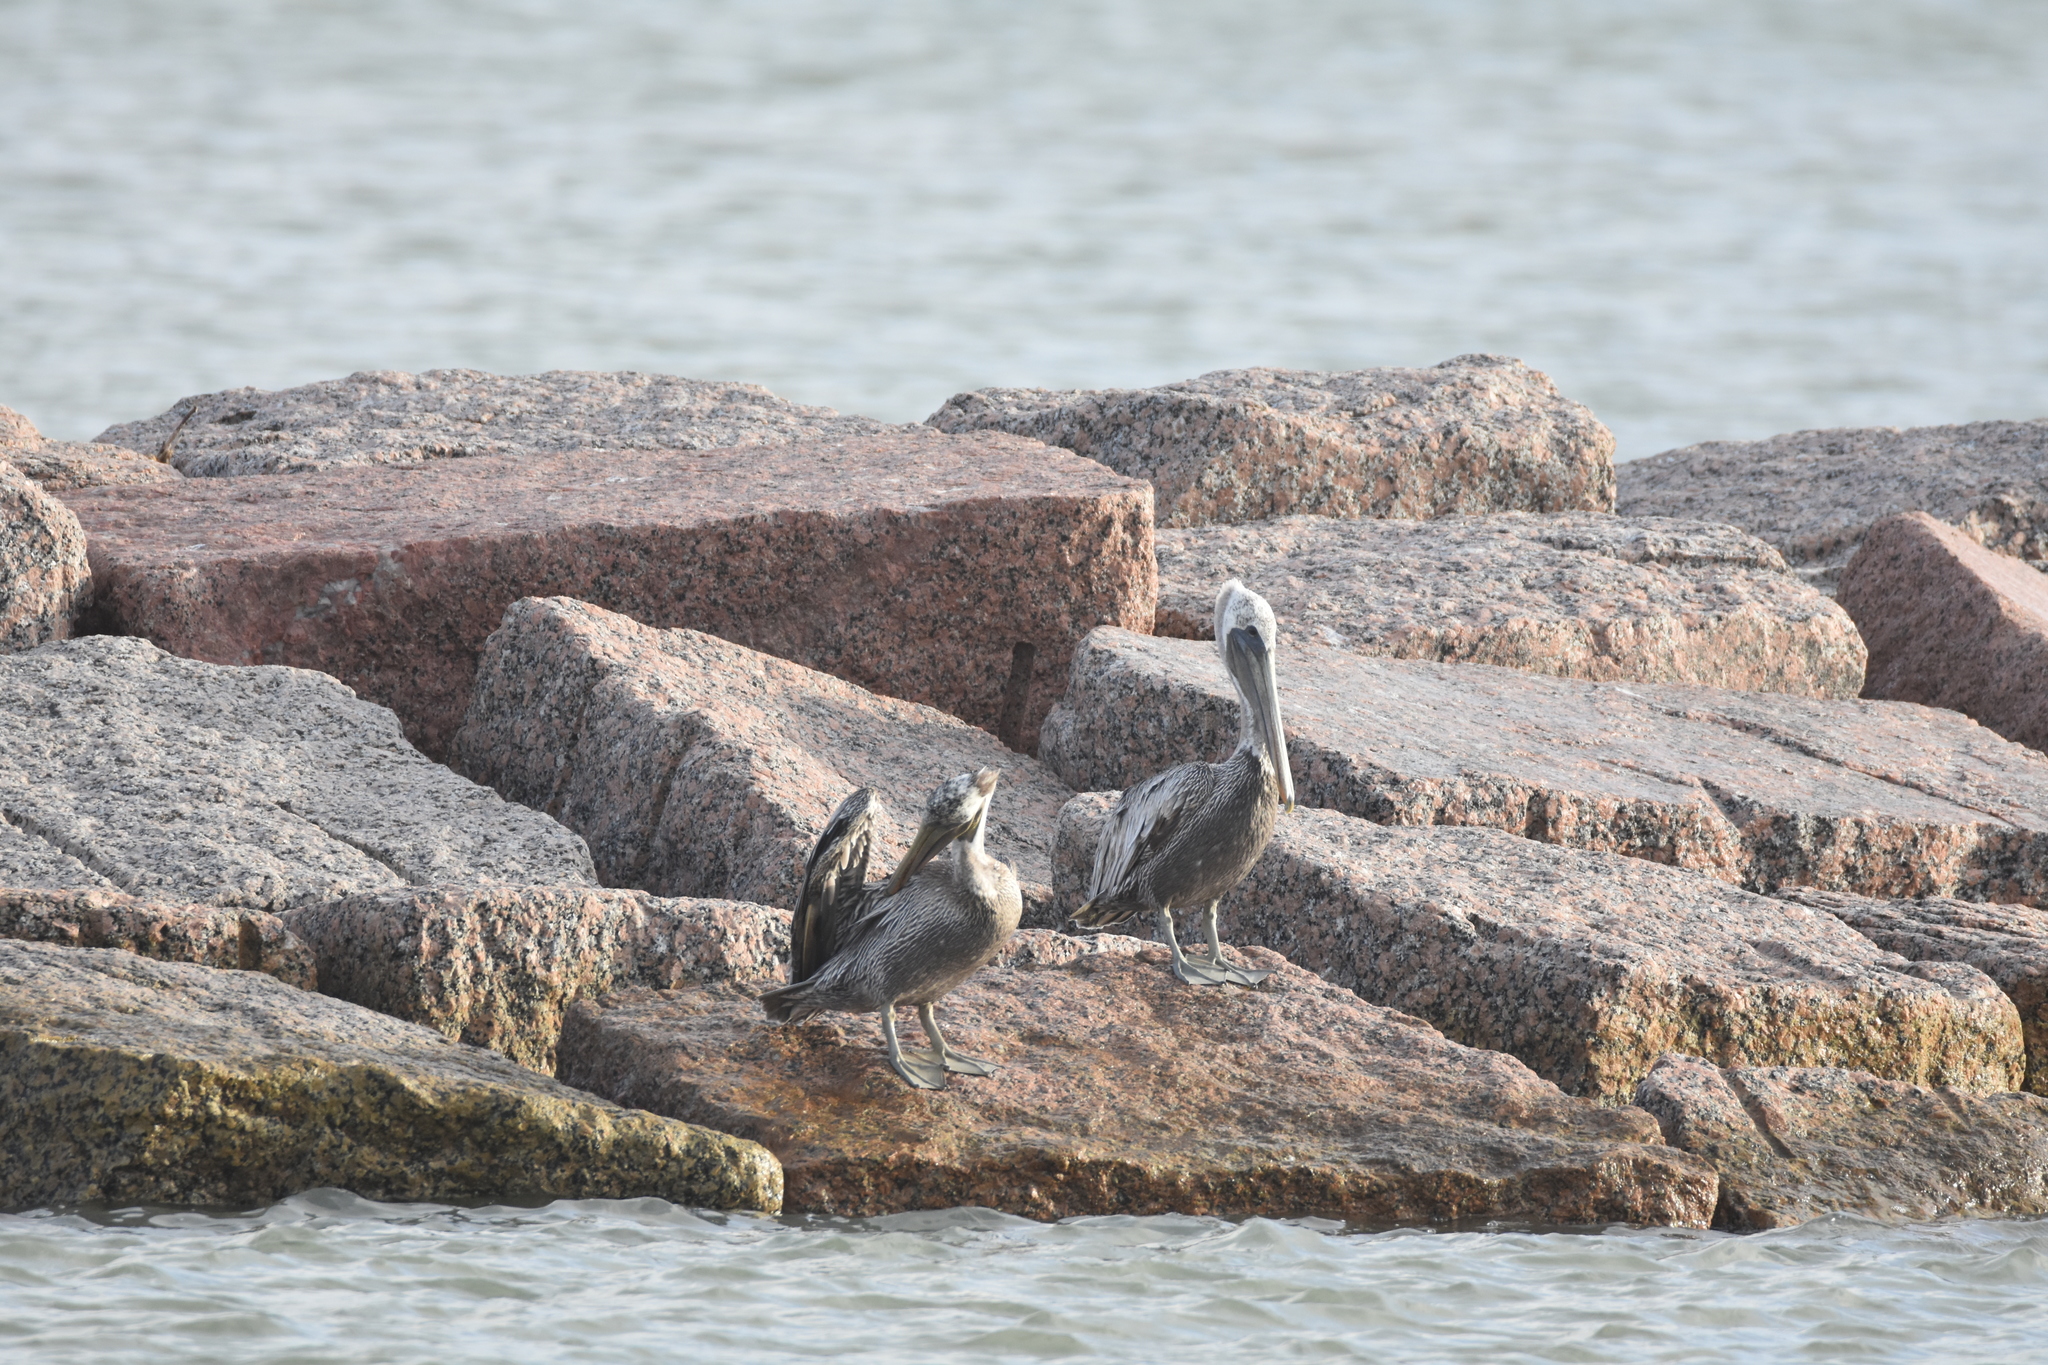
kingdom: Animalia
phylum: Chordata
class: Aves
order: Pelecaniformes
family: Pelecanidae
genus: Pelecanus
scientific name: Pelecanus occidentalis
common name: Brown pelican
